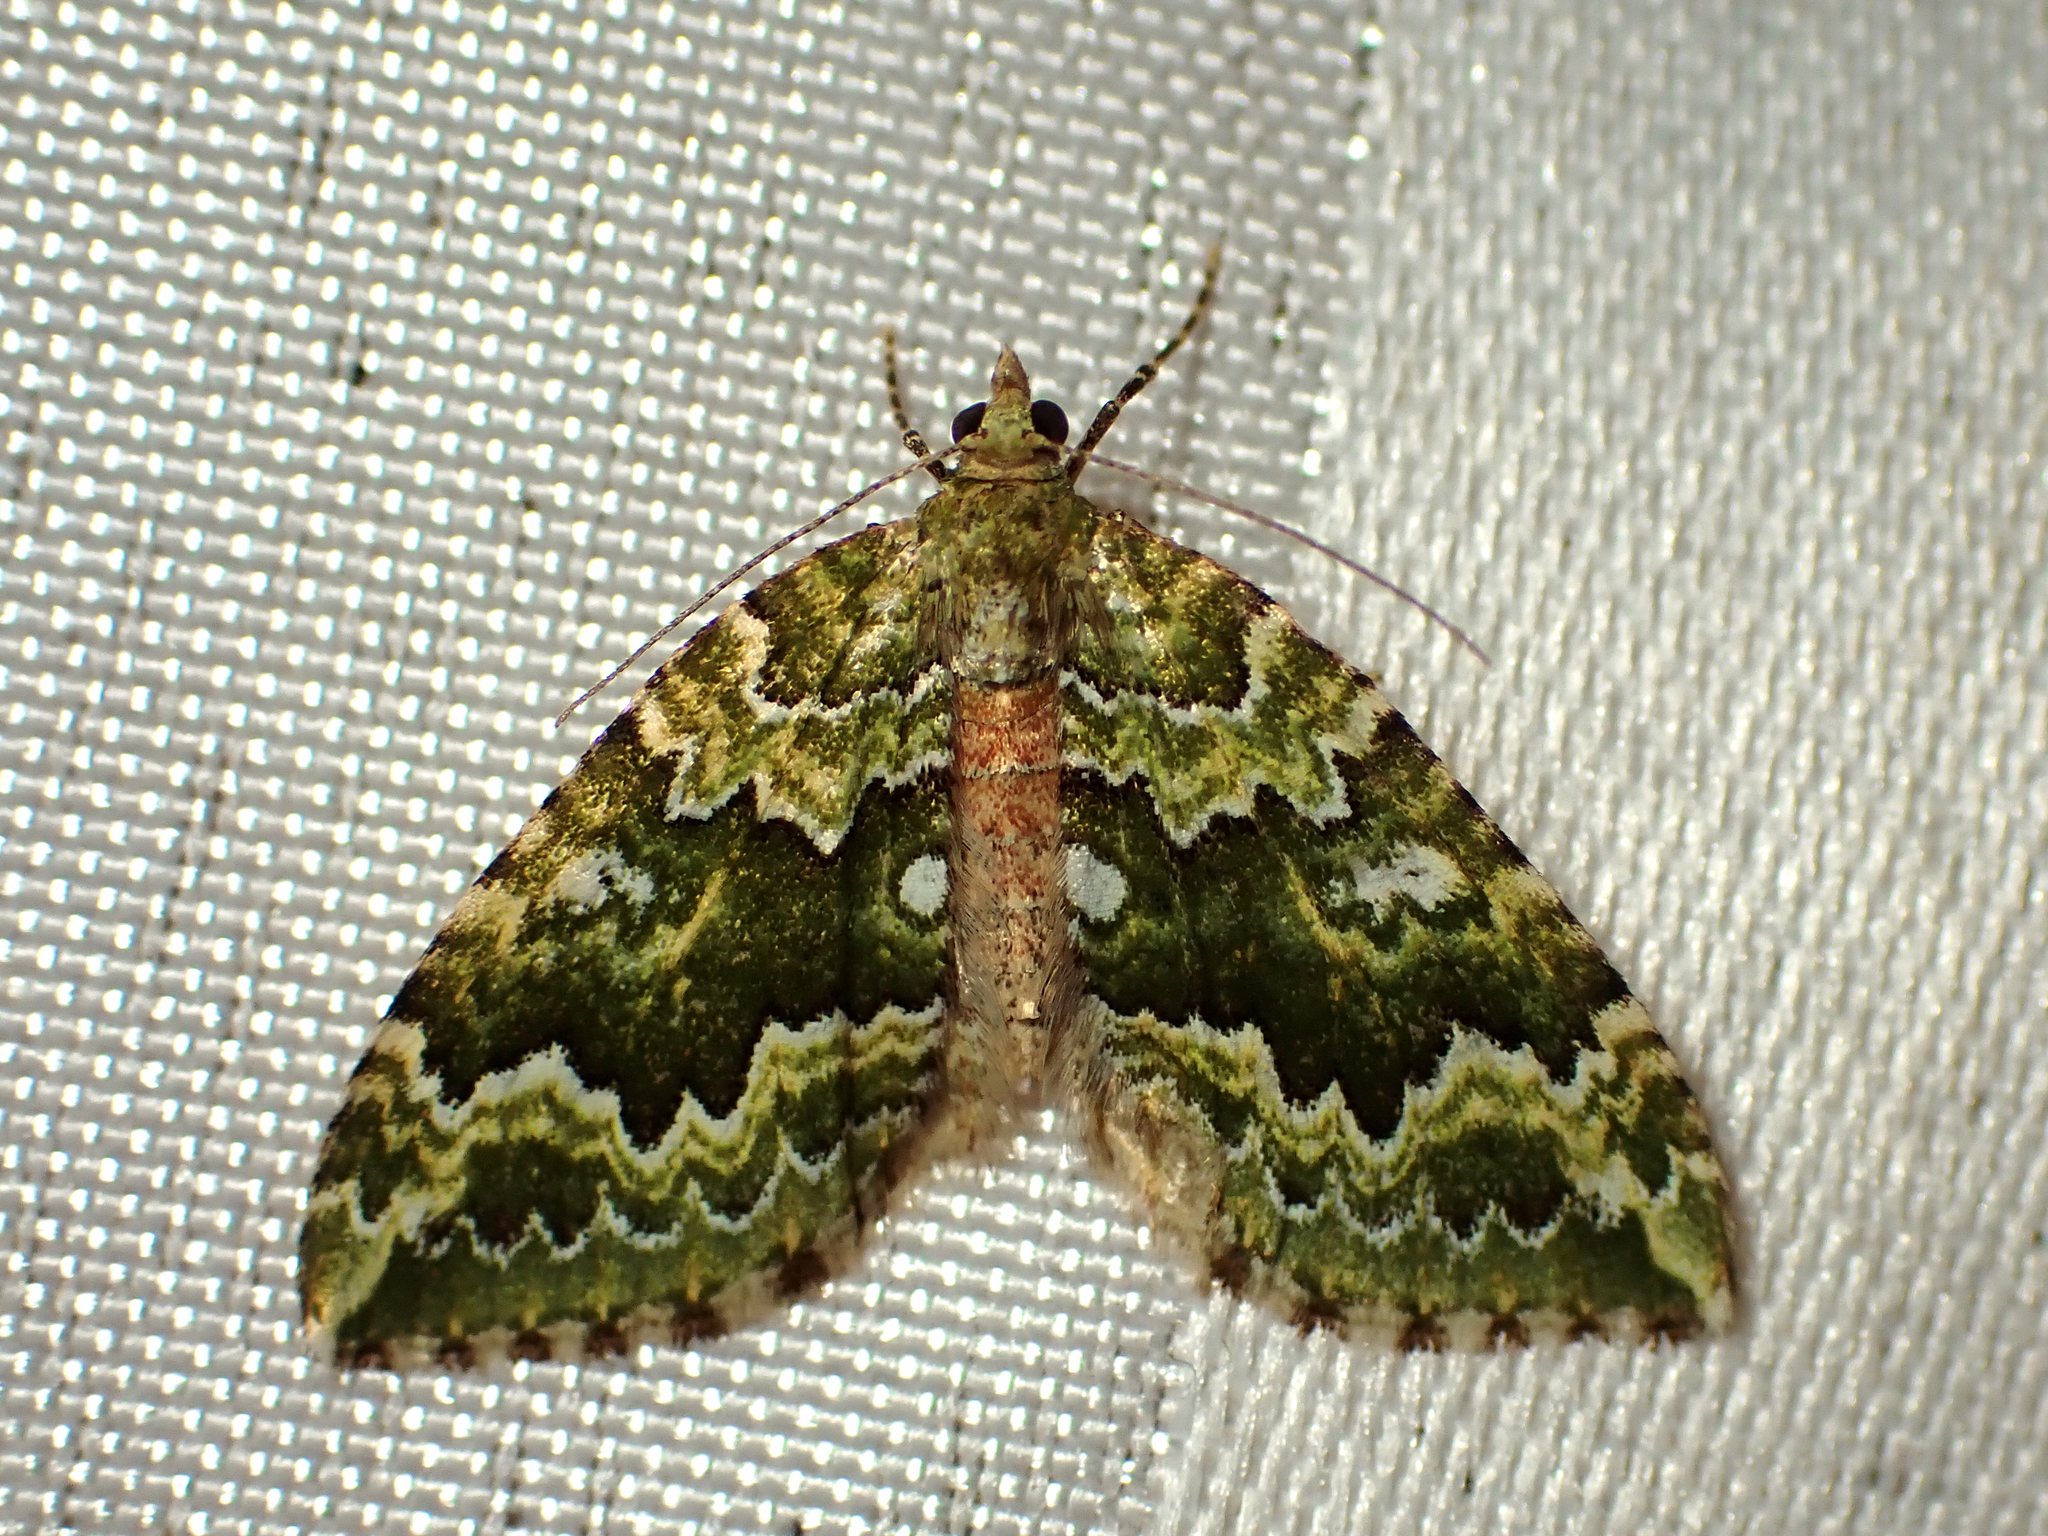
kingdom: Animalia
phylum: Arthropoda
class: Insecta
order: Lepidoptera
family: Geometridae
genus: Asaphodes
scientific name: Asaphodes beata
